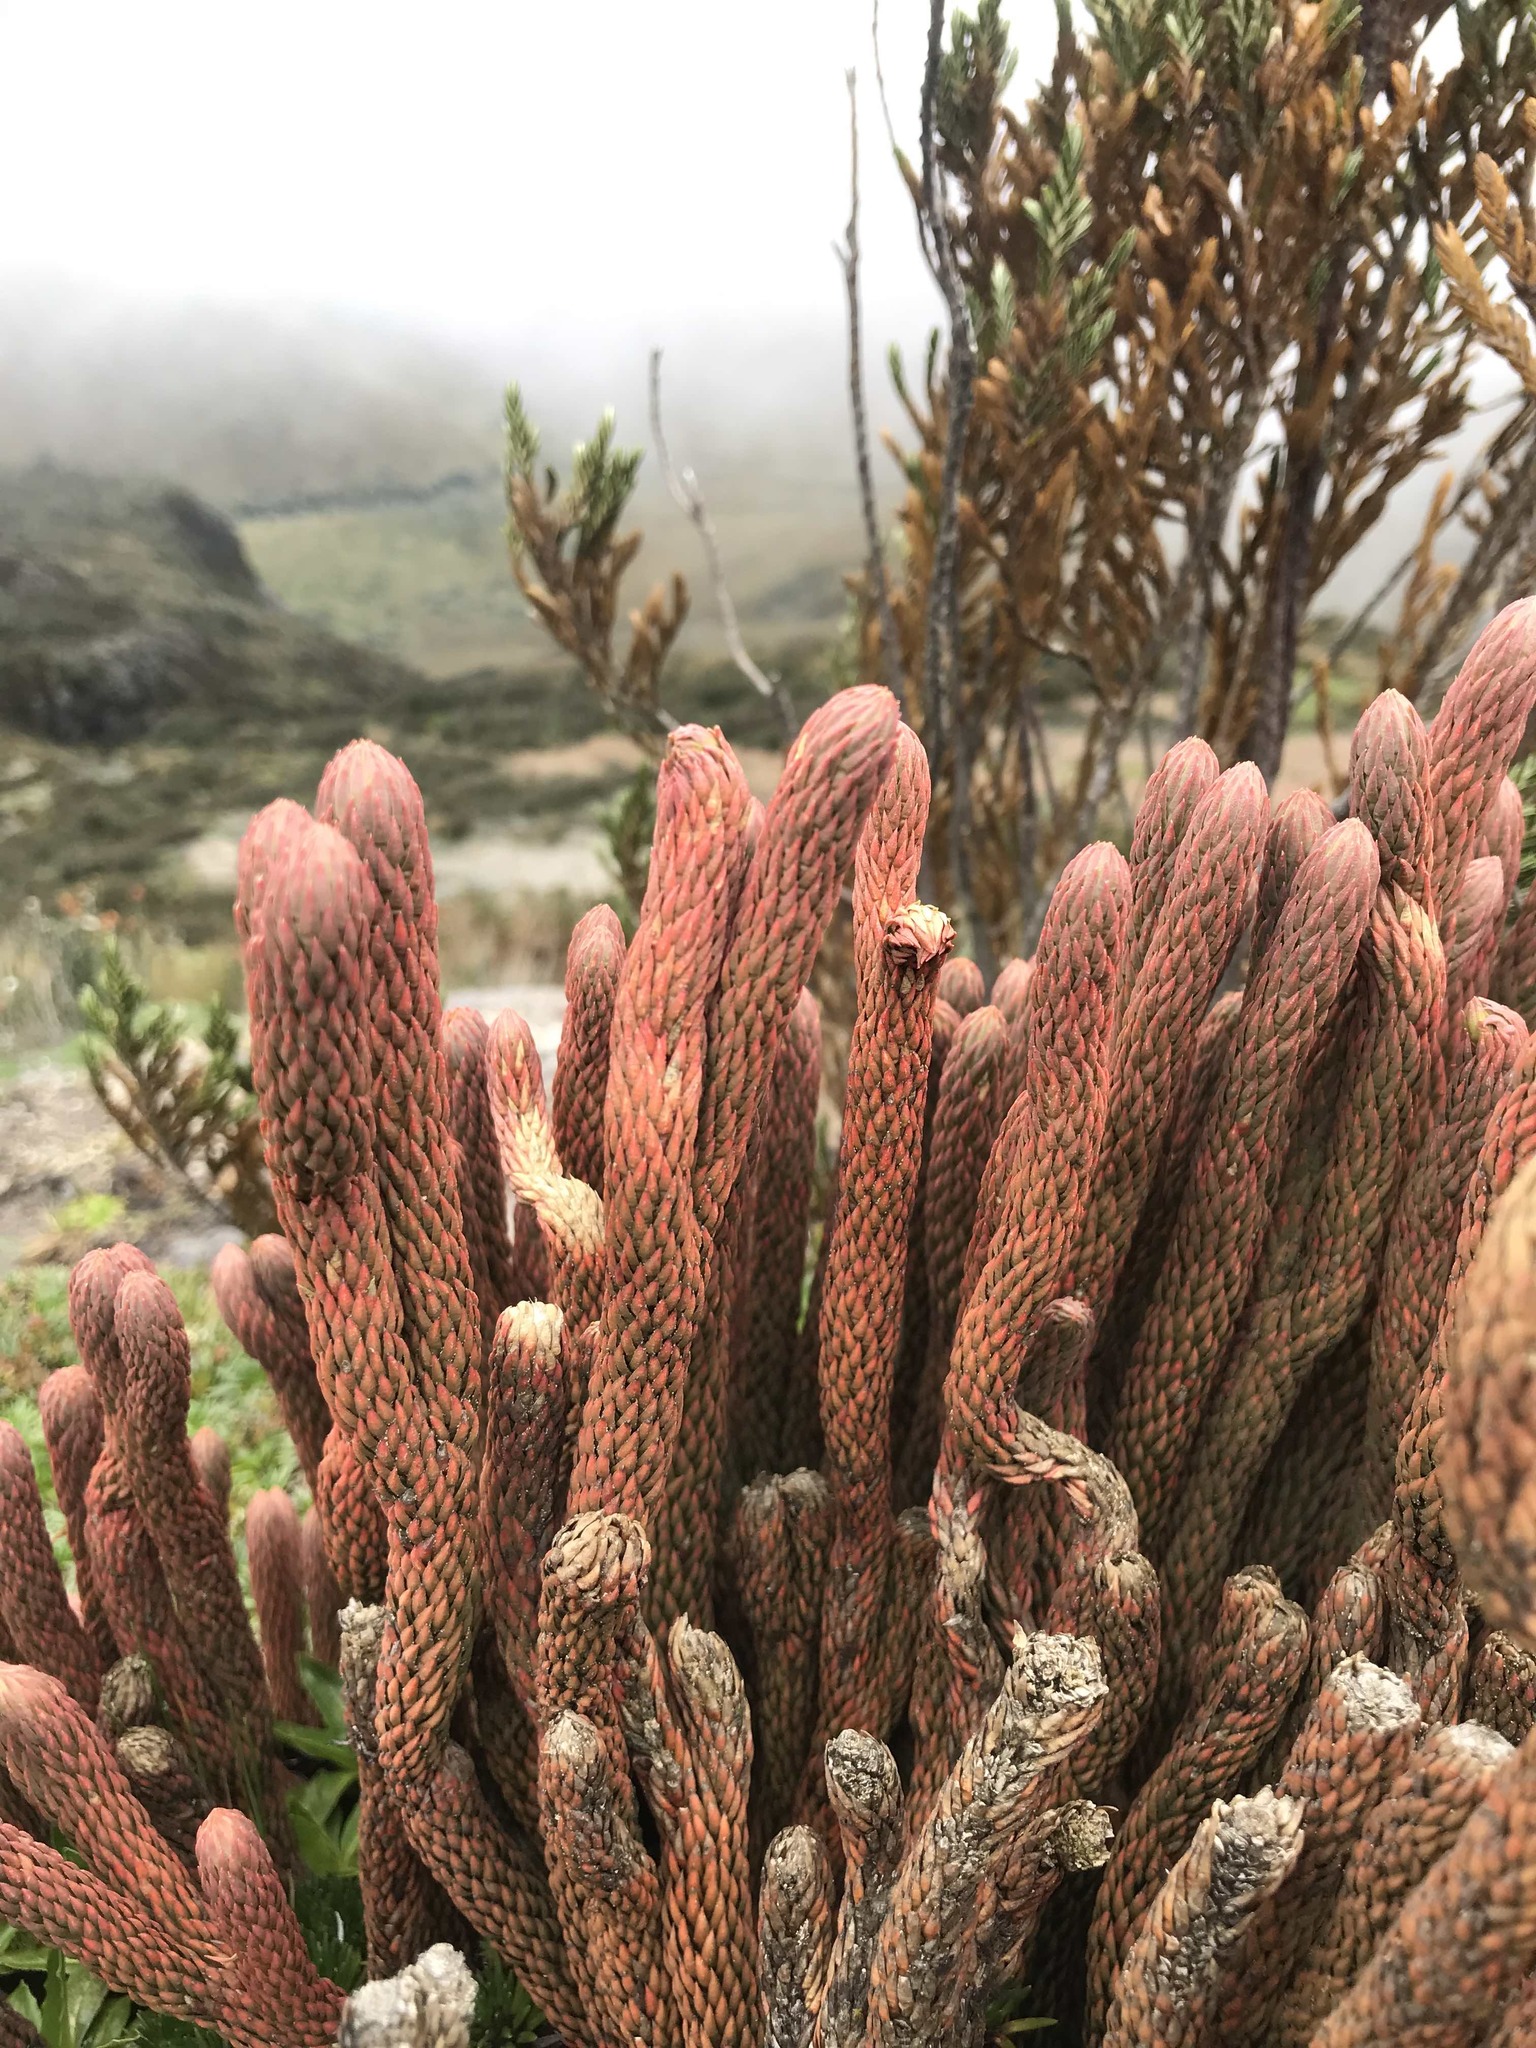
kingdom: Plantae
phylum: Tracheophyta
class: Lycopodiopsida
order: Lycopodiales
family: Lycopodiaceae
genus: Phlegmariurus
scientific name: Phlegmariurus crassus
